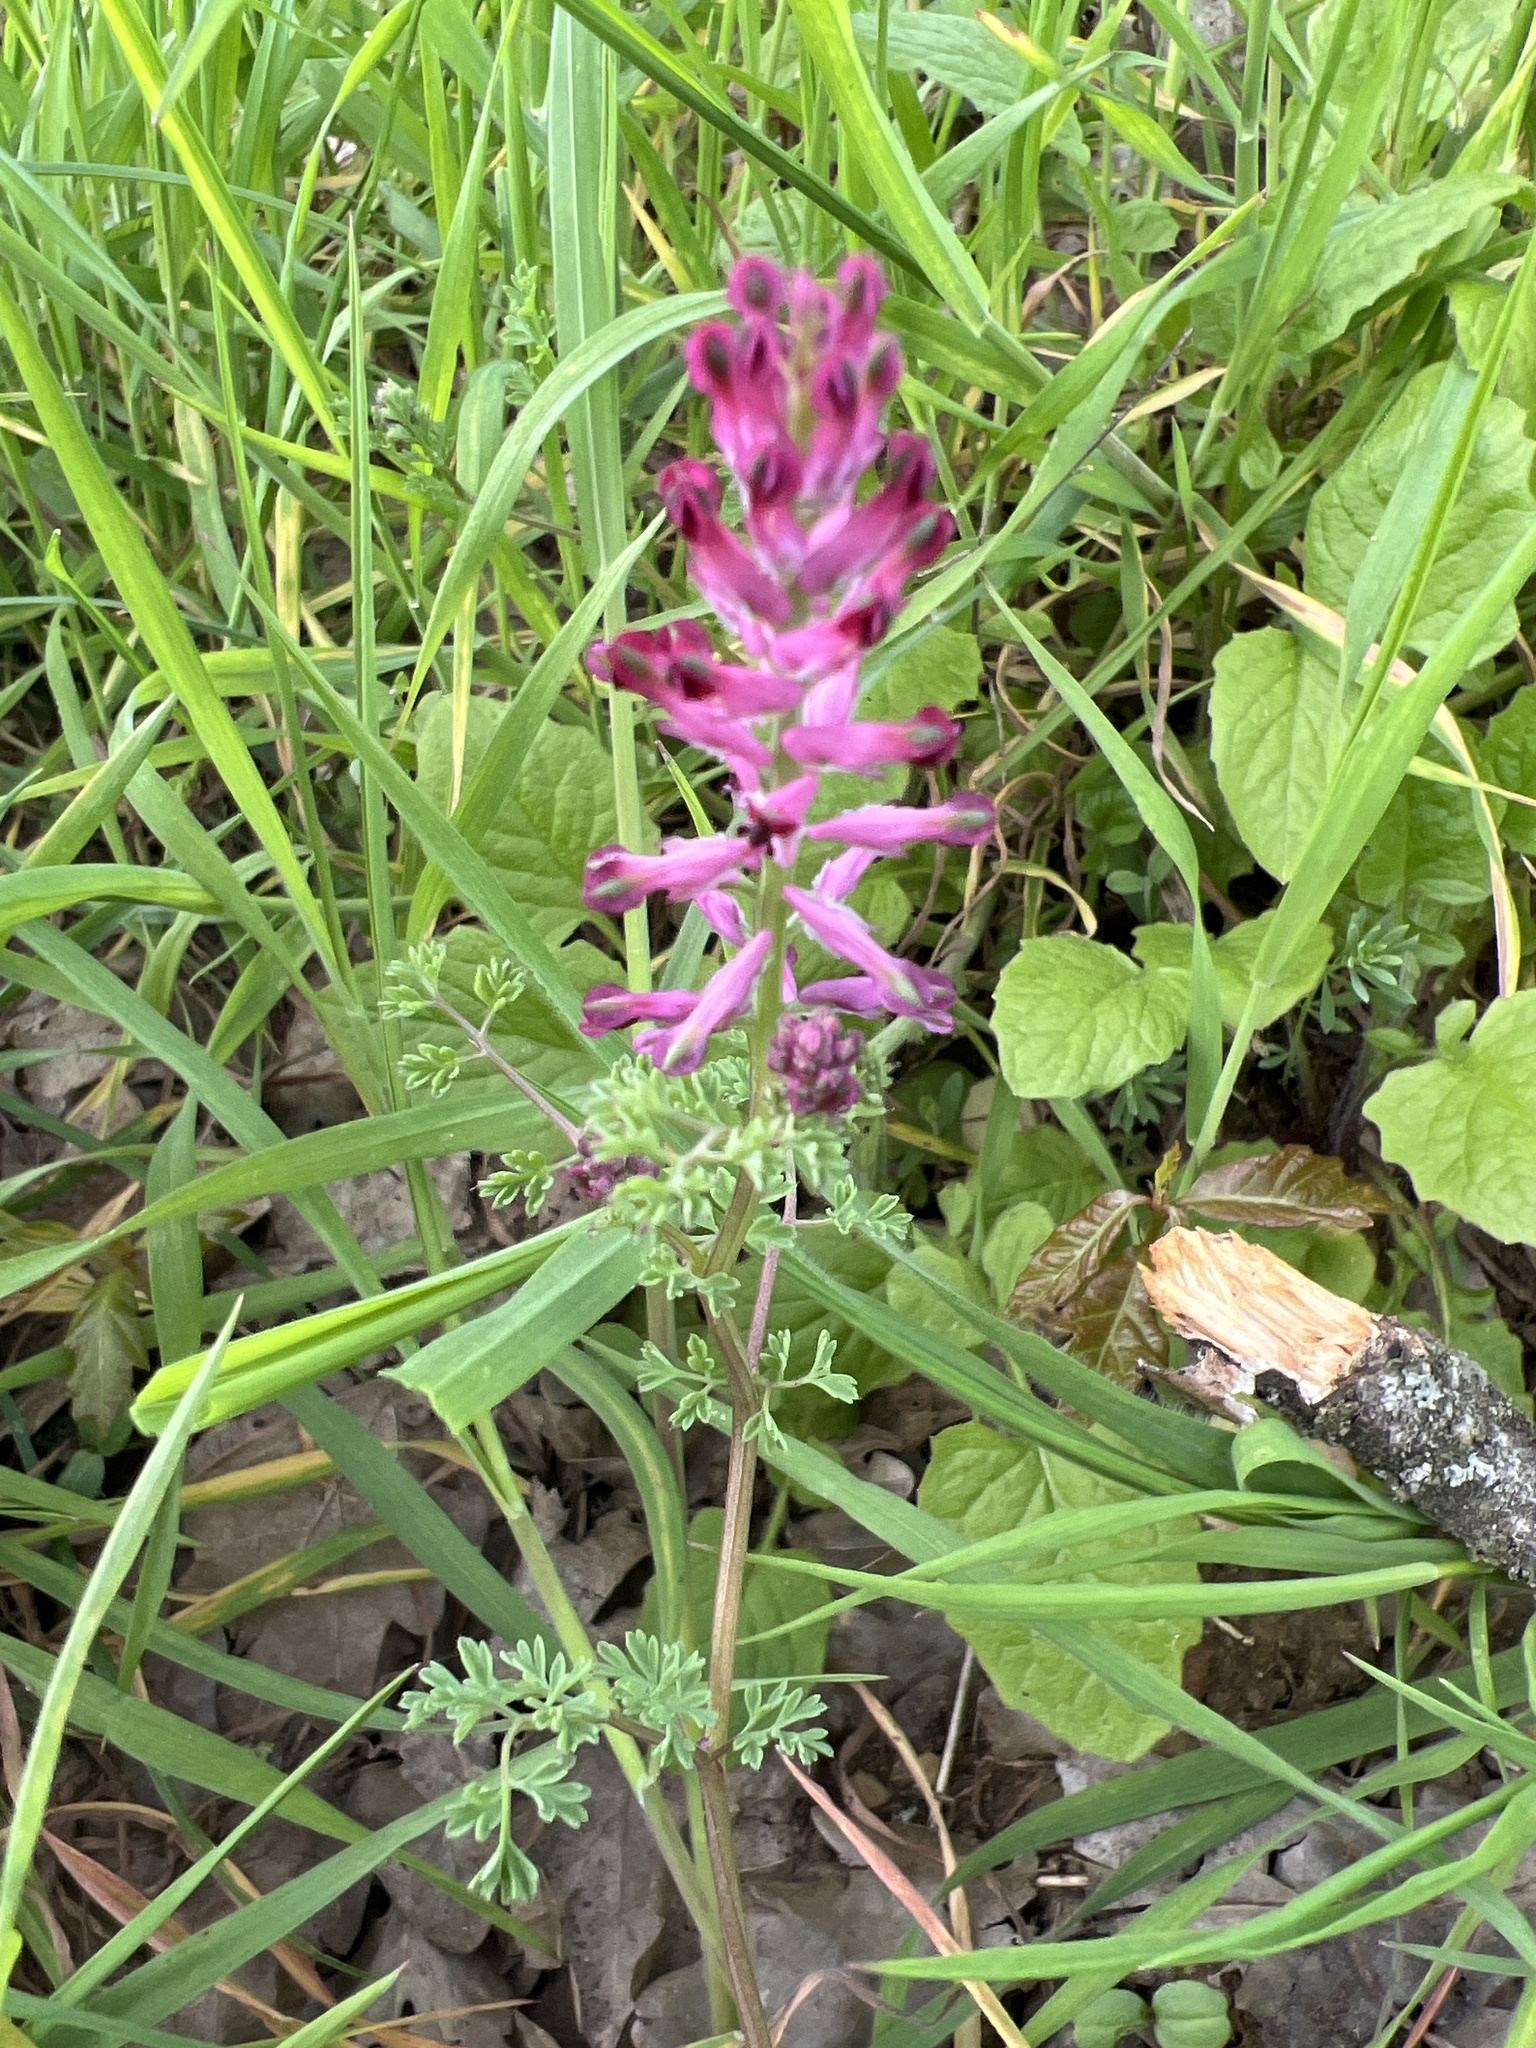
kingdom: Plantae
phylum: Tracheophyta
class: Magnoliopsida
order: Ranunculales
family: Papaveraceae
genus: Fumaria
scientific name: Fumaria officinalis
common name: Common fumitory
